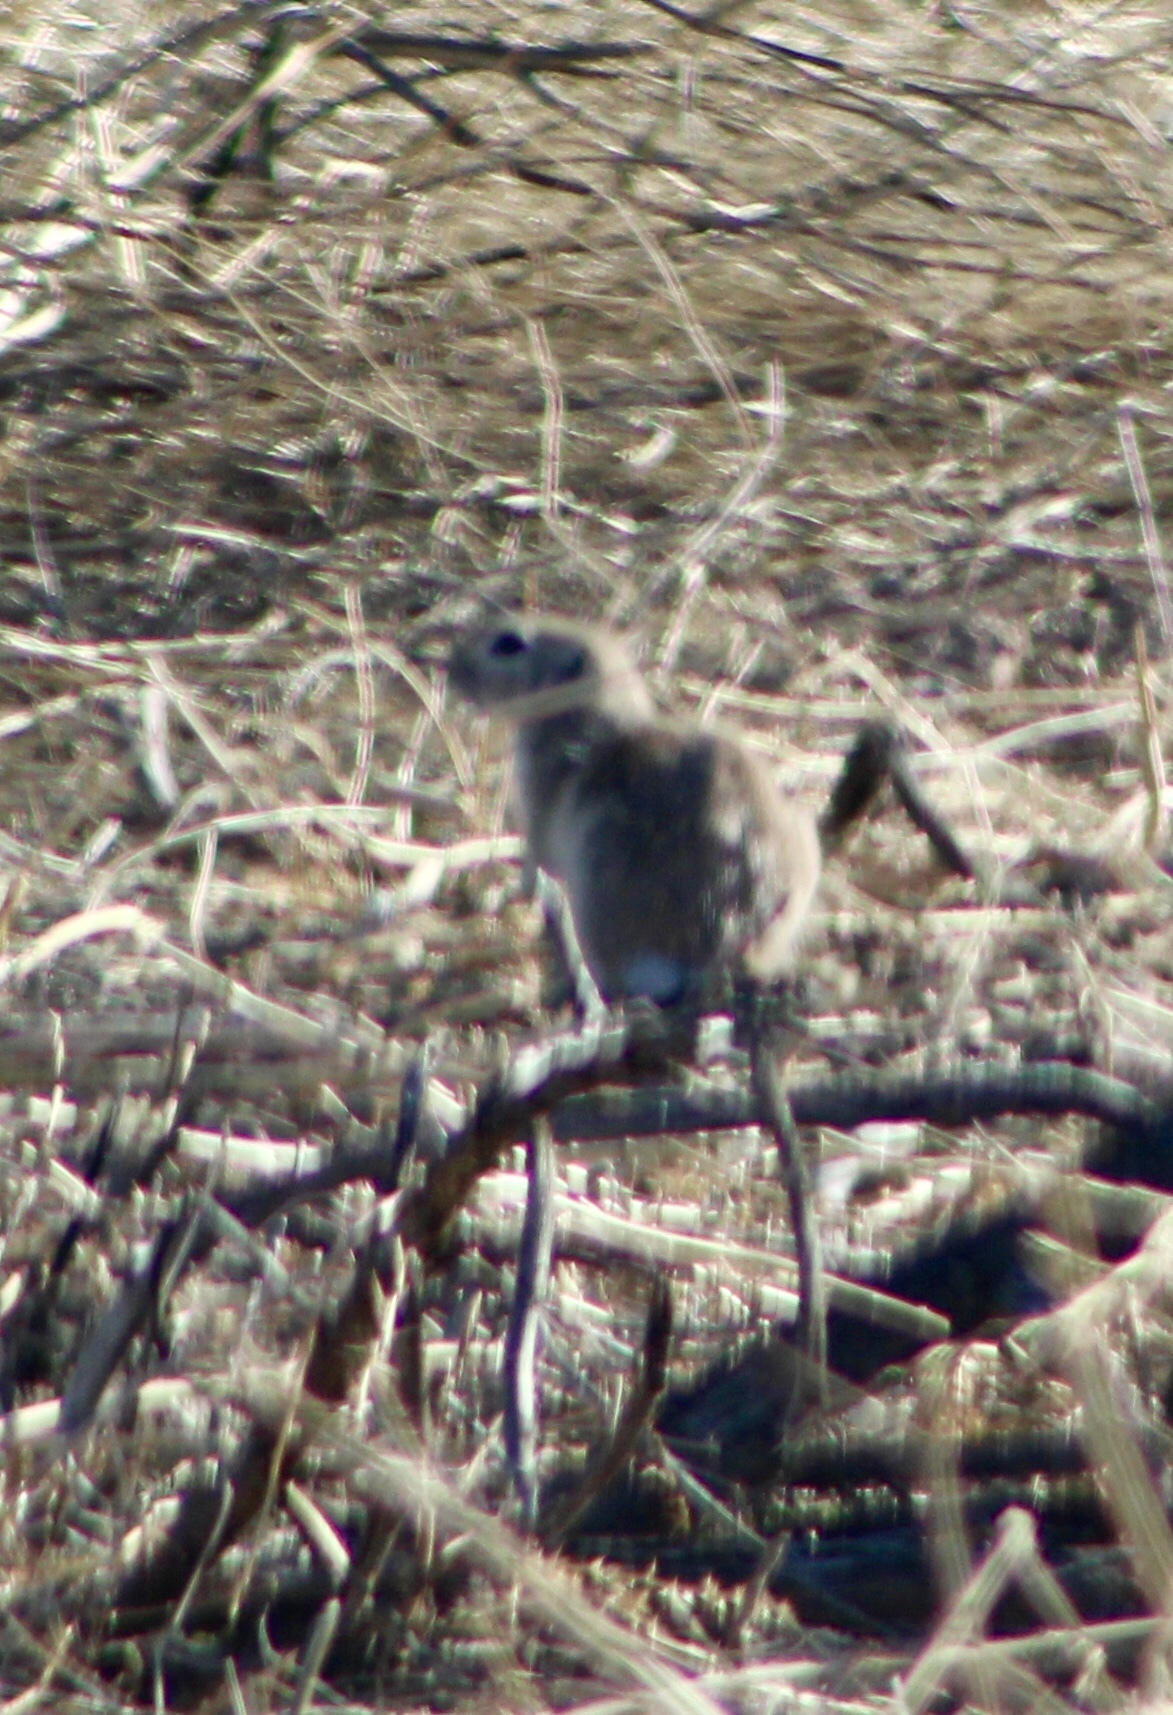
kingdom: Animalia
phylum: Chordata
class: Mammalia
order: Rodentia
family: Sciuridae
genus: Xerospermophilus
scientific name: Xerospermophilus tereticaudus
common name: Round-tailed ground squirrel
